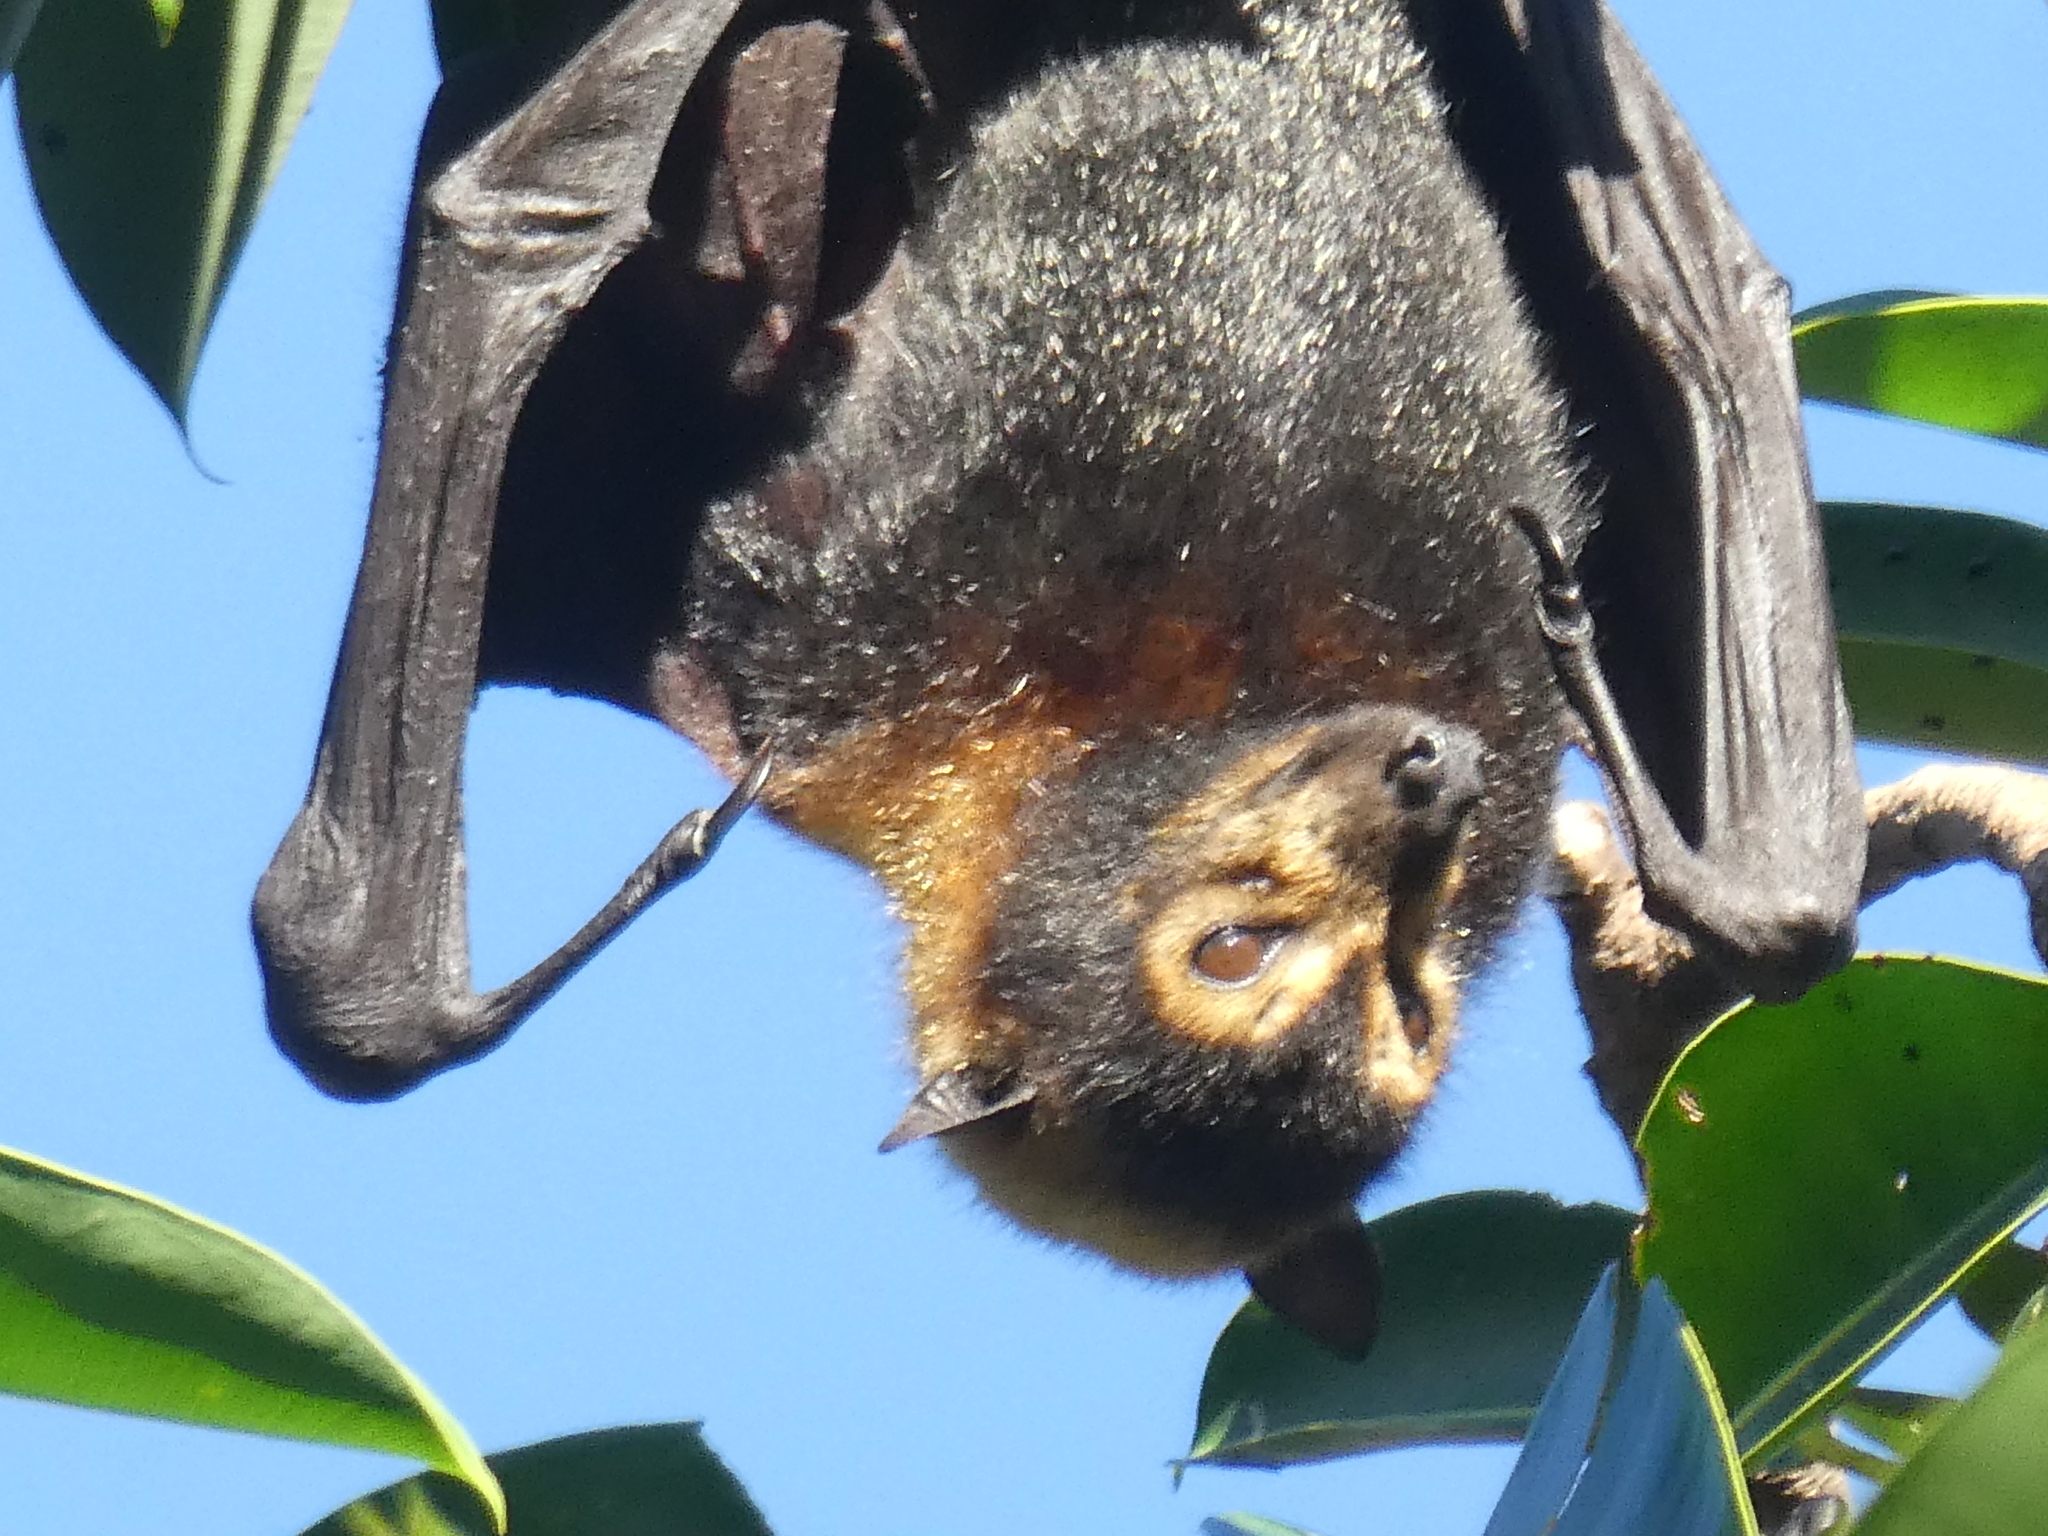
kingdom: Animalia
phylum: Chordata
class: Mammalia
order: Chiroptera
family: Pteropodidae
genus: Pteropus
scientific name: Pteropus conspicillatus
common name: Spectacled flying fox
